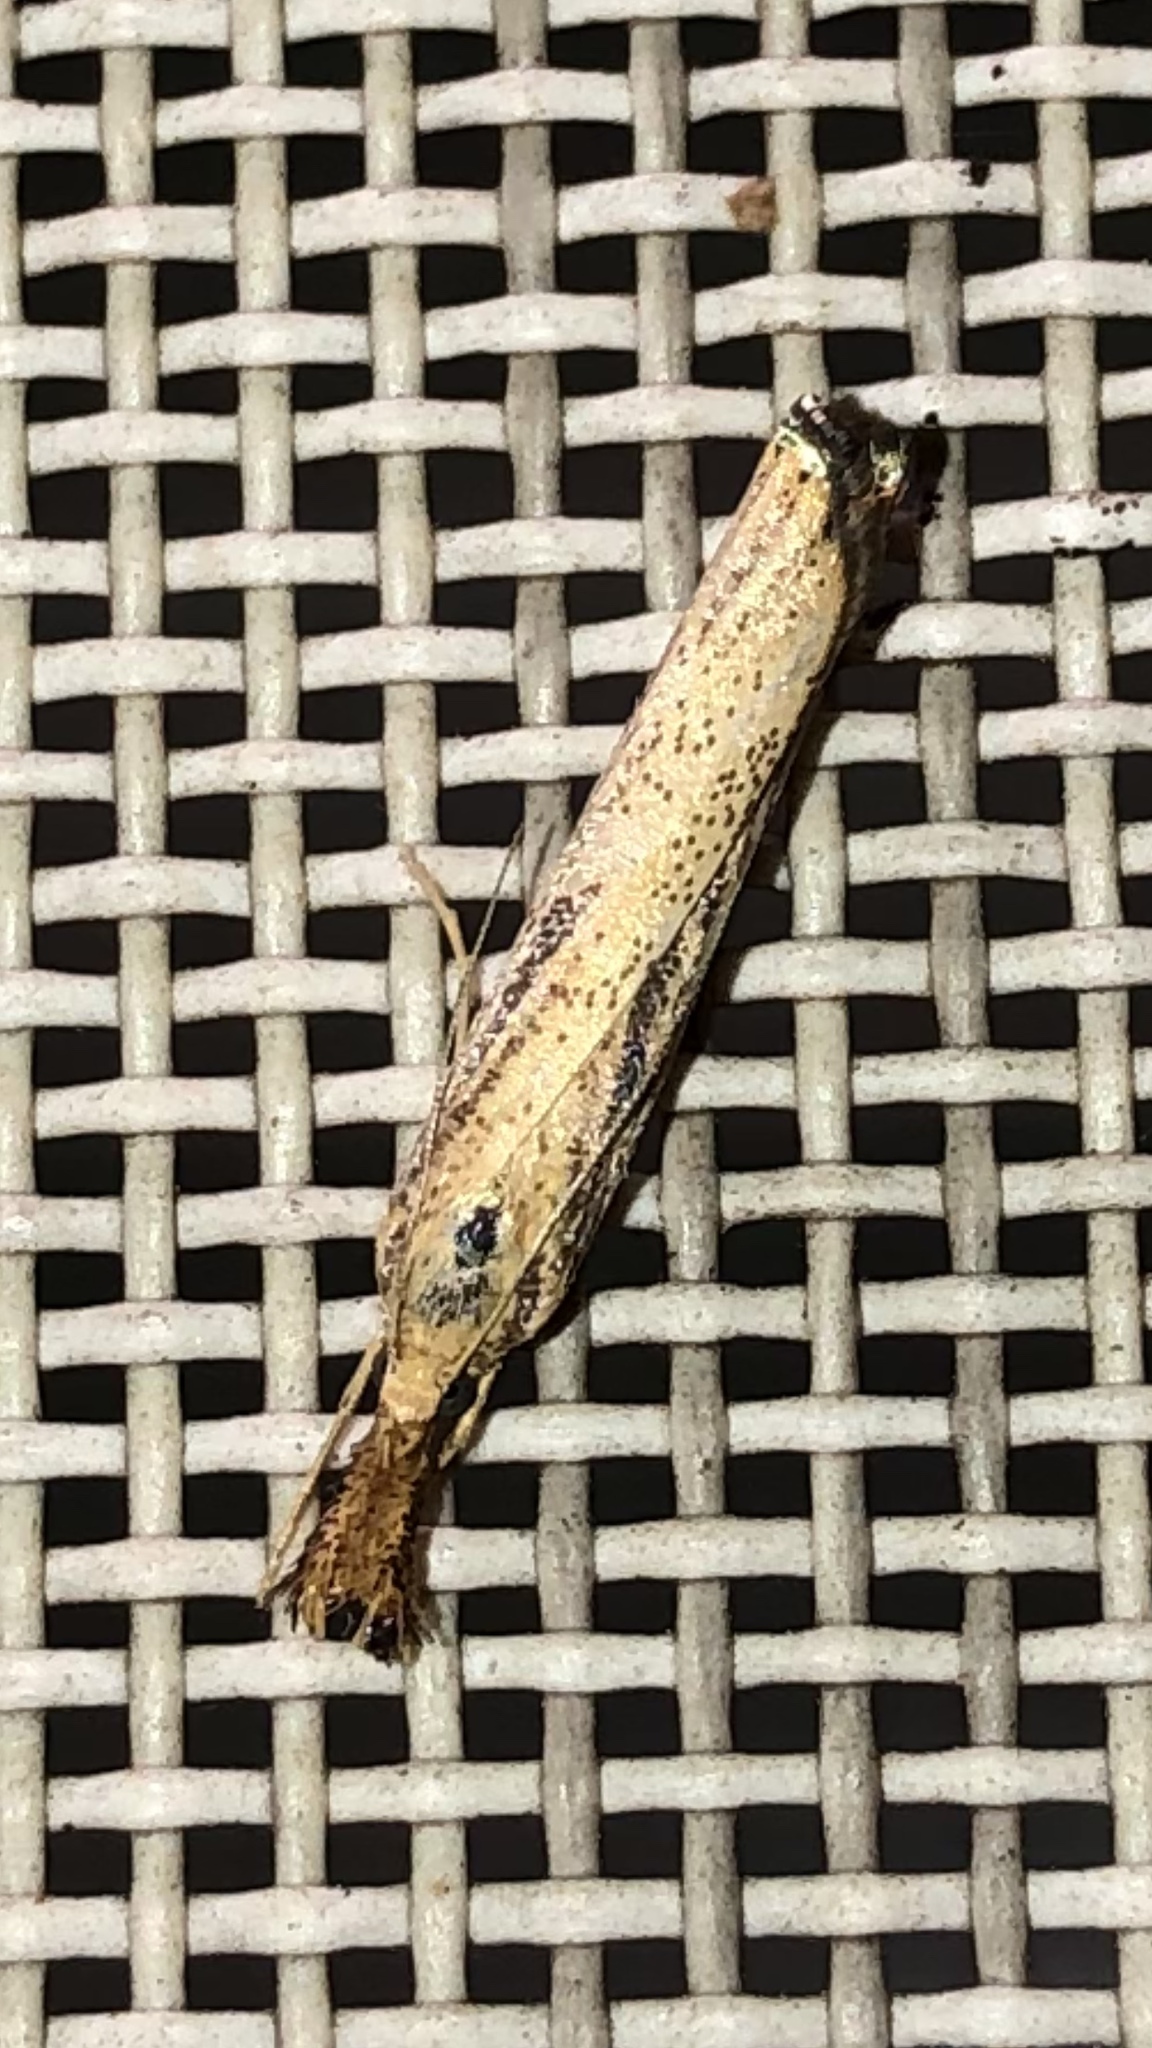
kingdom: Animalia
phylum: Arthropoda
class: Insecta
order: Lepidoptera
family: Crambidae
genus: Agriphila
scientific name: Agriphila vulgivagellus
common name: Vagabond crambus moth
